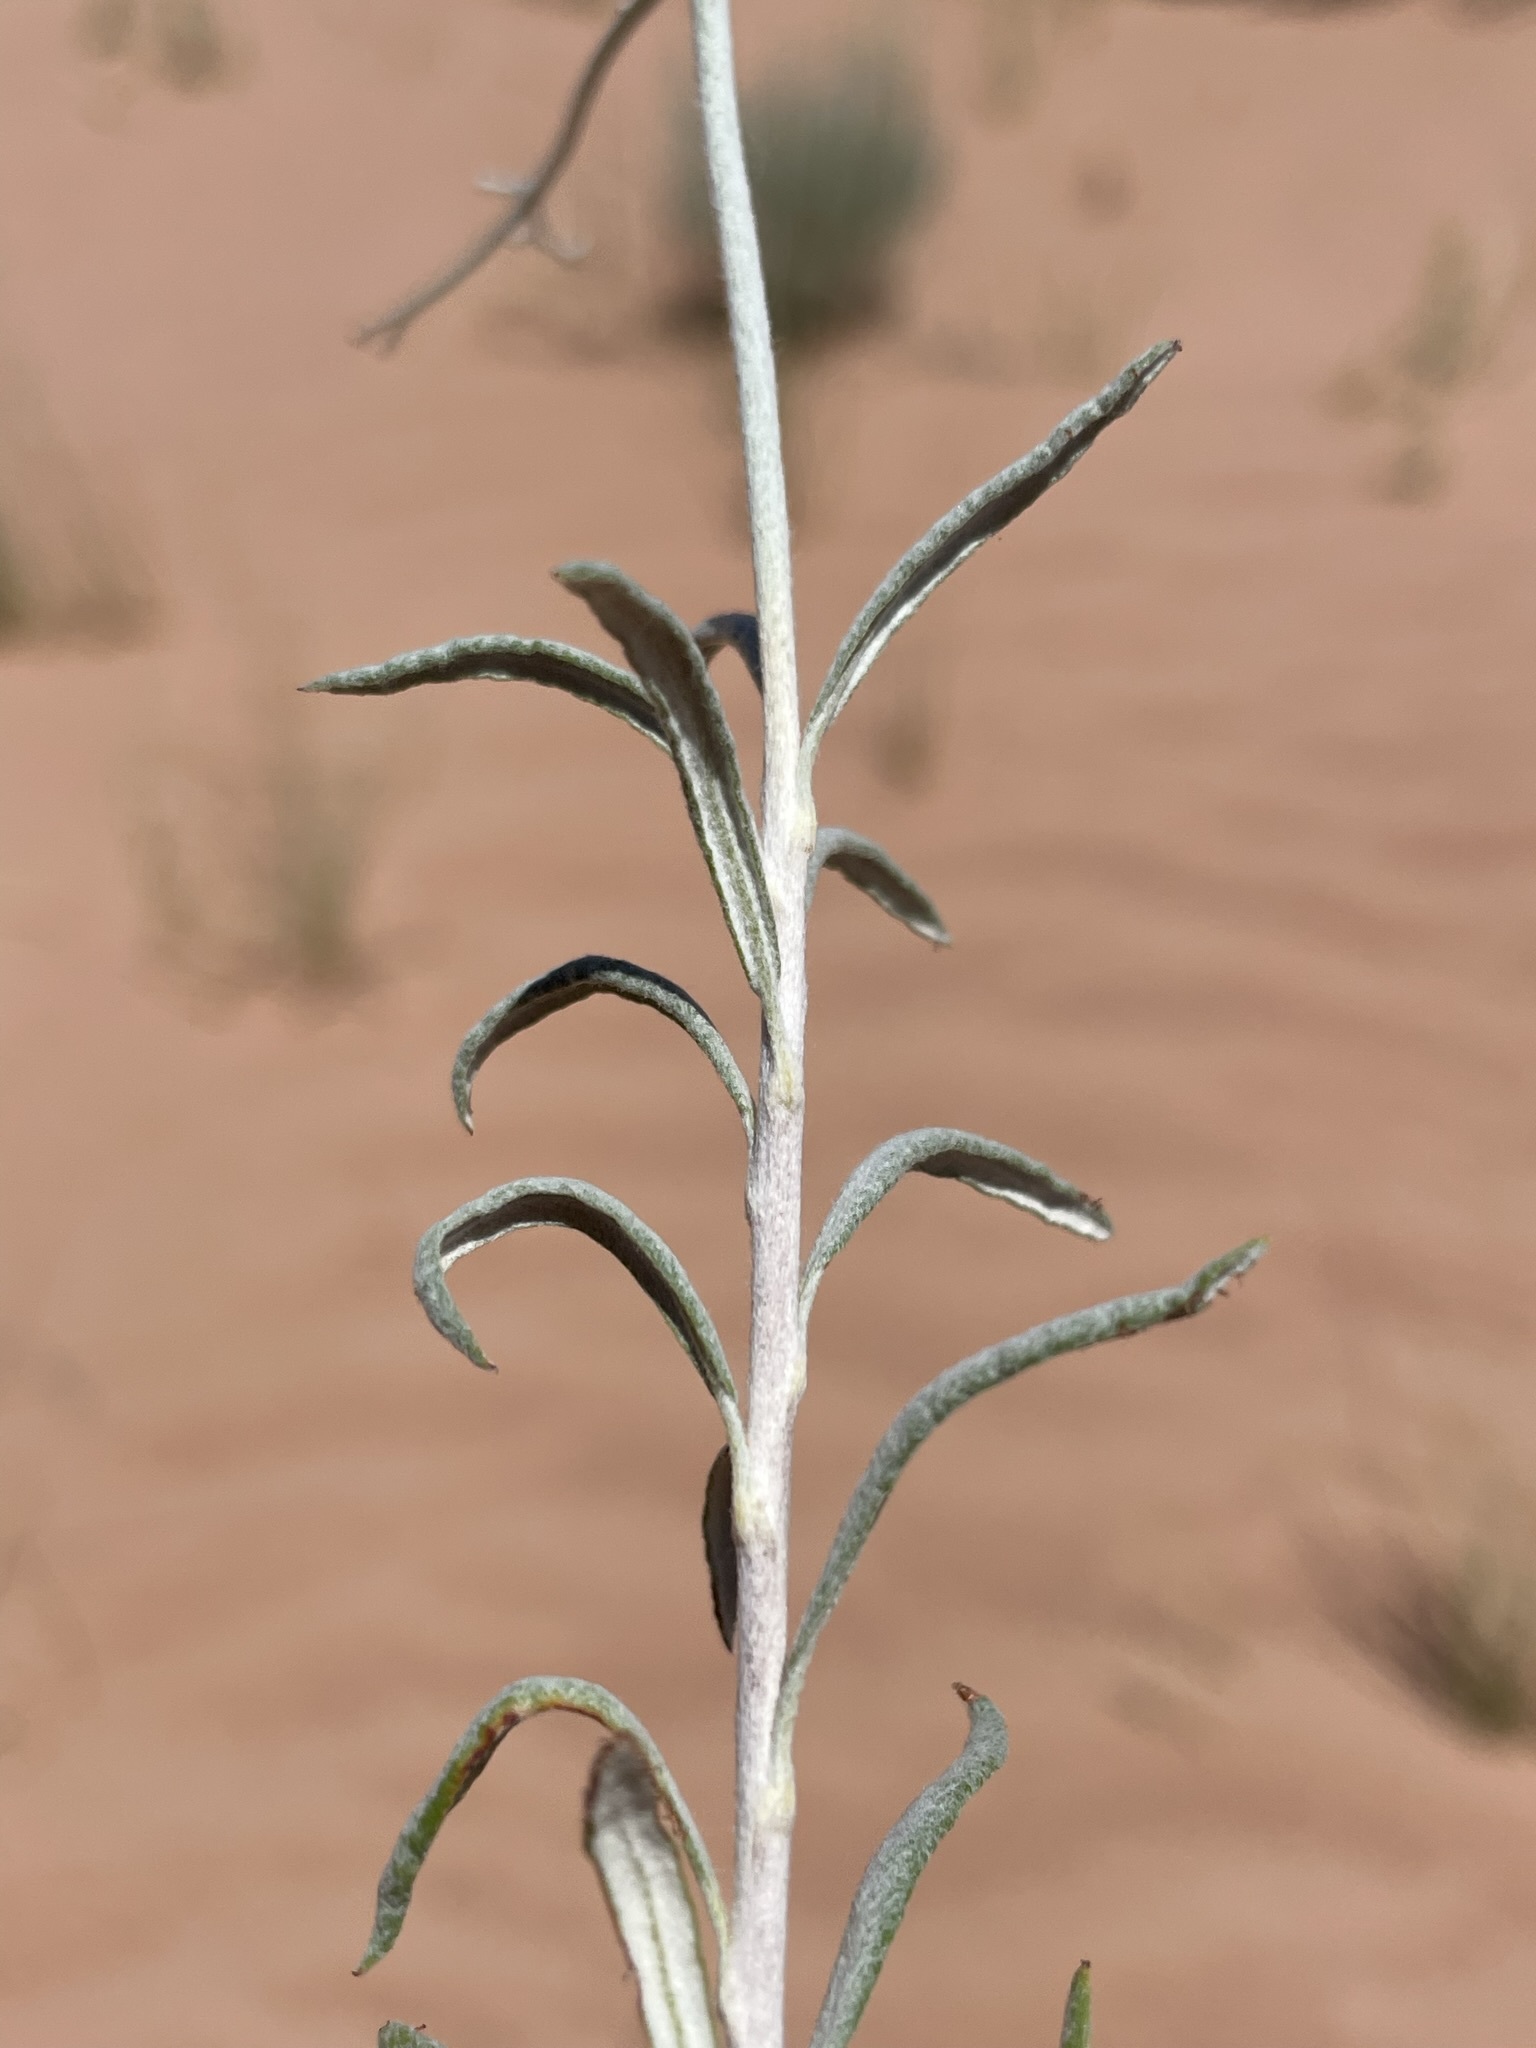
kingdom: Plantae
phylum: Tracheophyta
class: Magnoliopsida
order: Caryophyllales
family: Polygonaceae
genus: Eriogonum
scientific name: Eriogonum leptocladon
